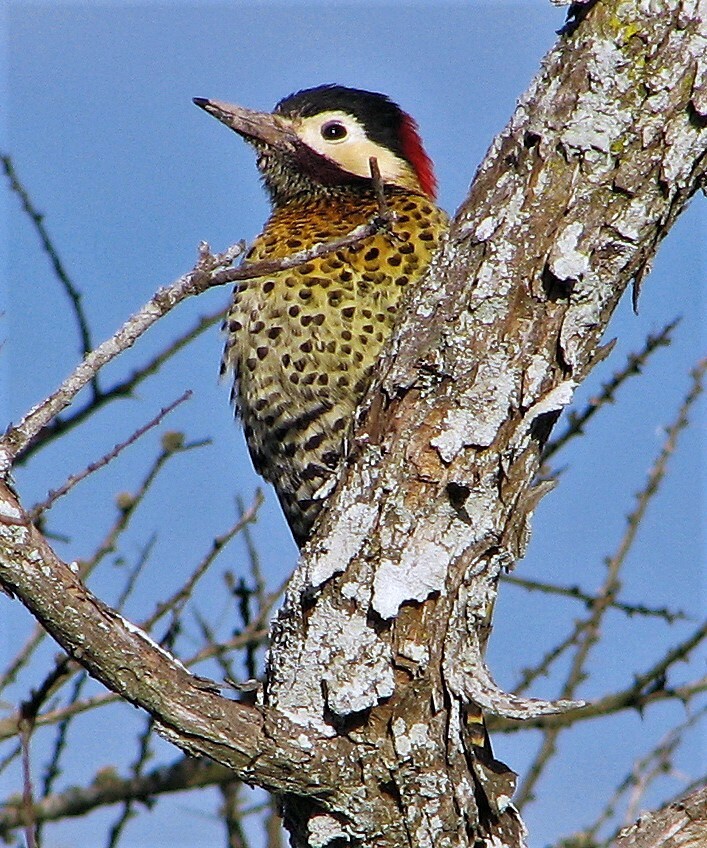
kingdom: Animalia
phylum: Chordata
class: Aves
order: Piciformes
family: Picidae
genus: Colaptes
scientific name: Colaptes melanochloros
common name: Green-barred woodpecker
